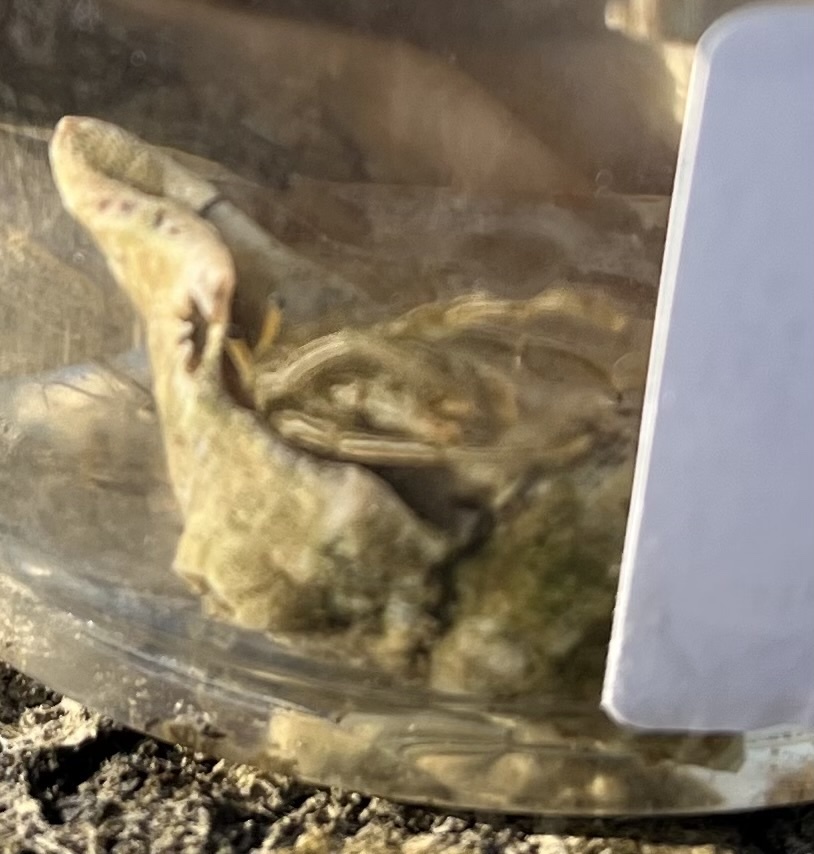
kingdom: Animalia
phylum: Arthropoda
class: Malacostraca
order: Decapoda
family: Diogenidae
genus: Clibanarius
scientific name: Clibanarius vittatus
